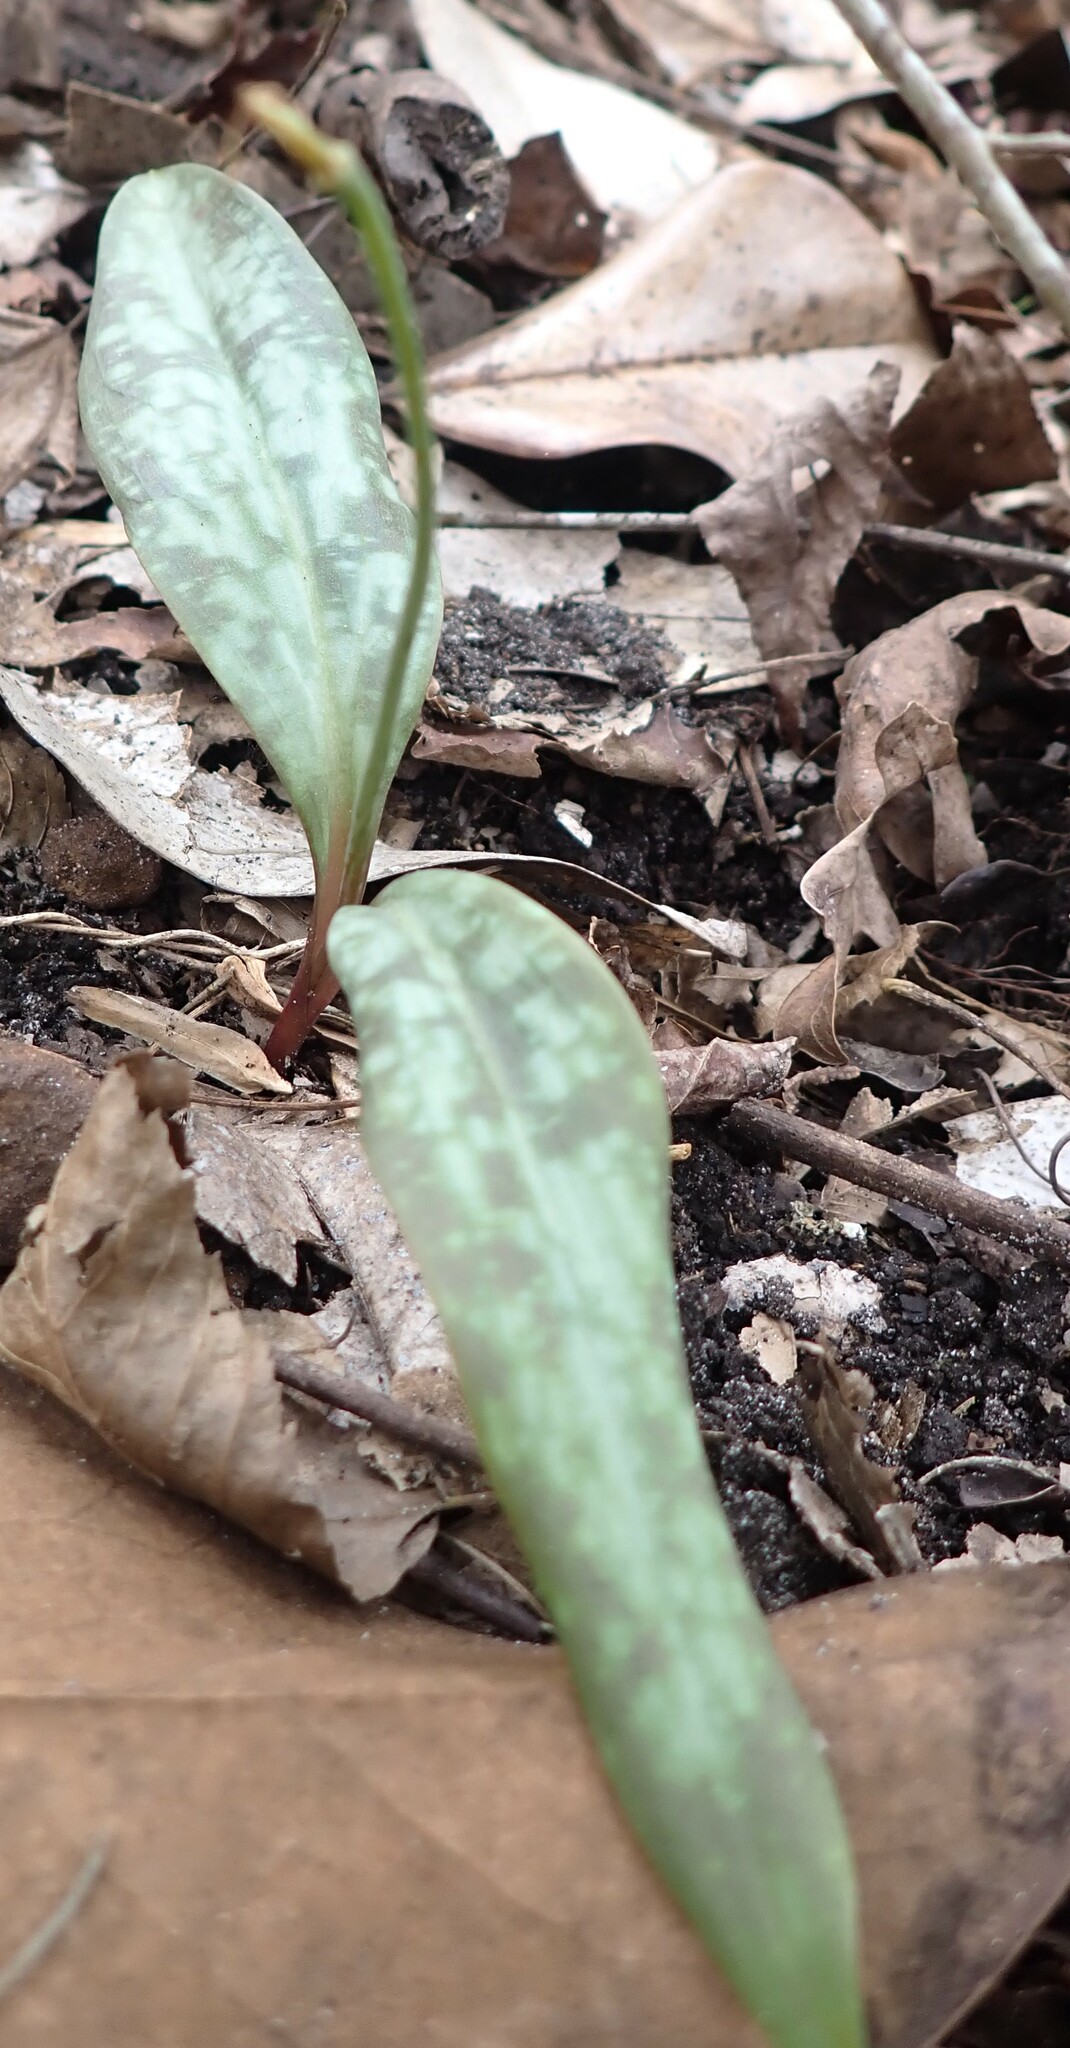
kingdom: Plantae
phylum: Tracheophyta
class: Liliopsida
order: Liliales
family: Liliaceae
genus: Erythronium
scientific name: Erythronium umbilicatum
